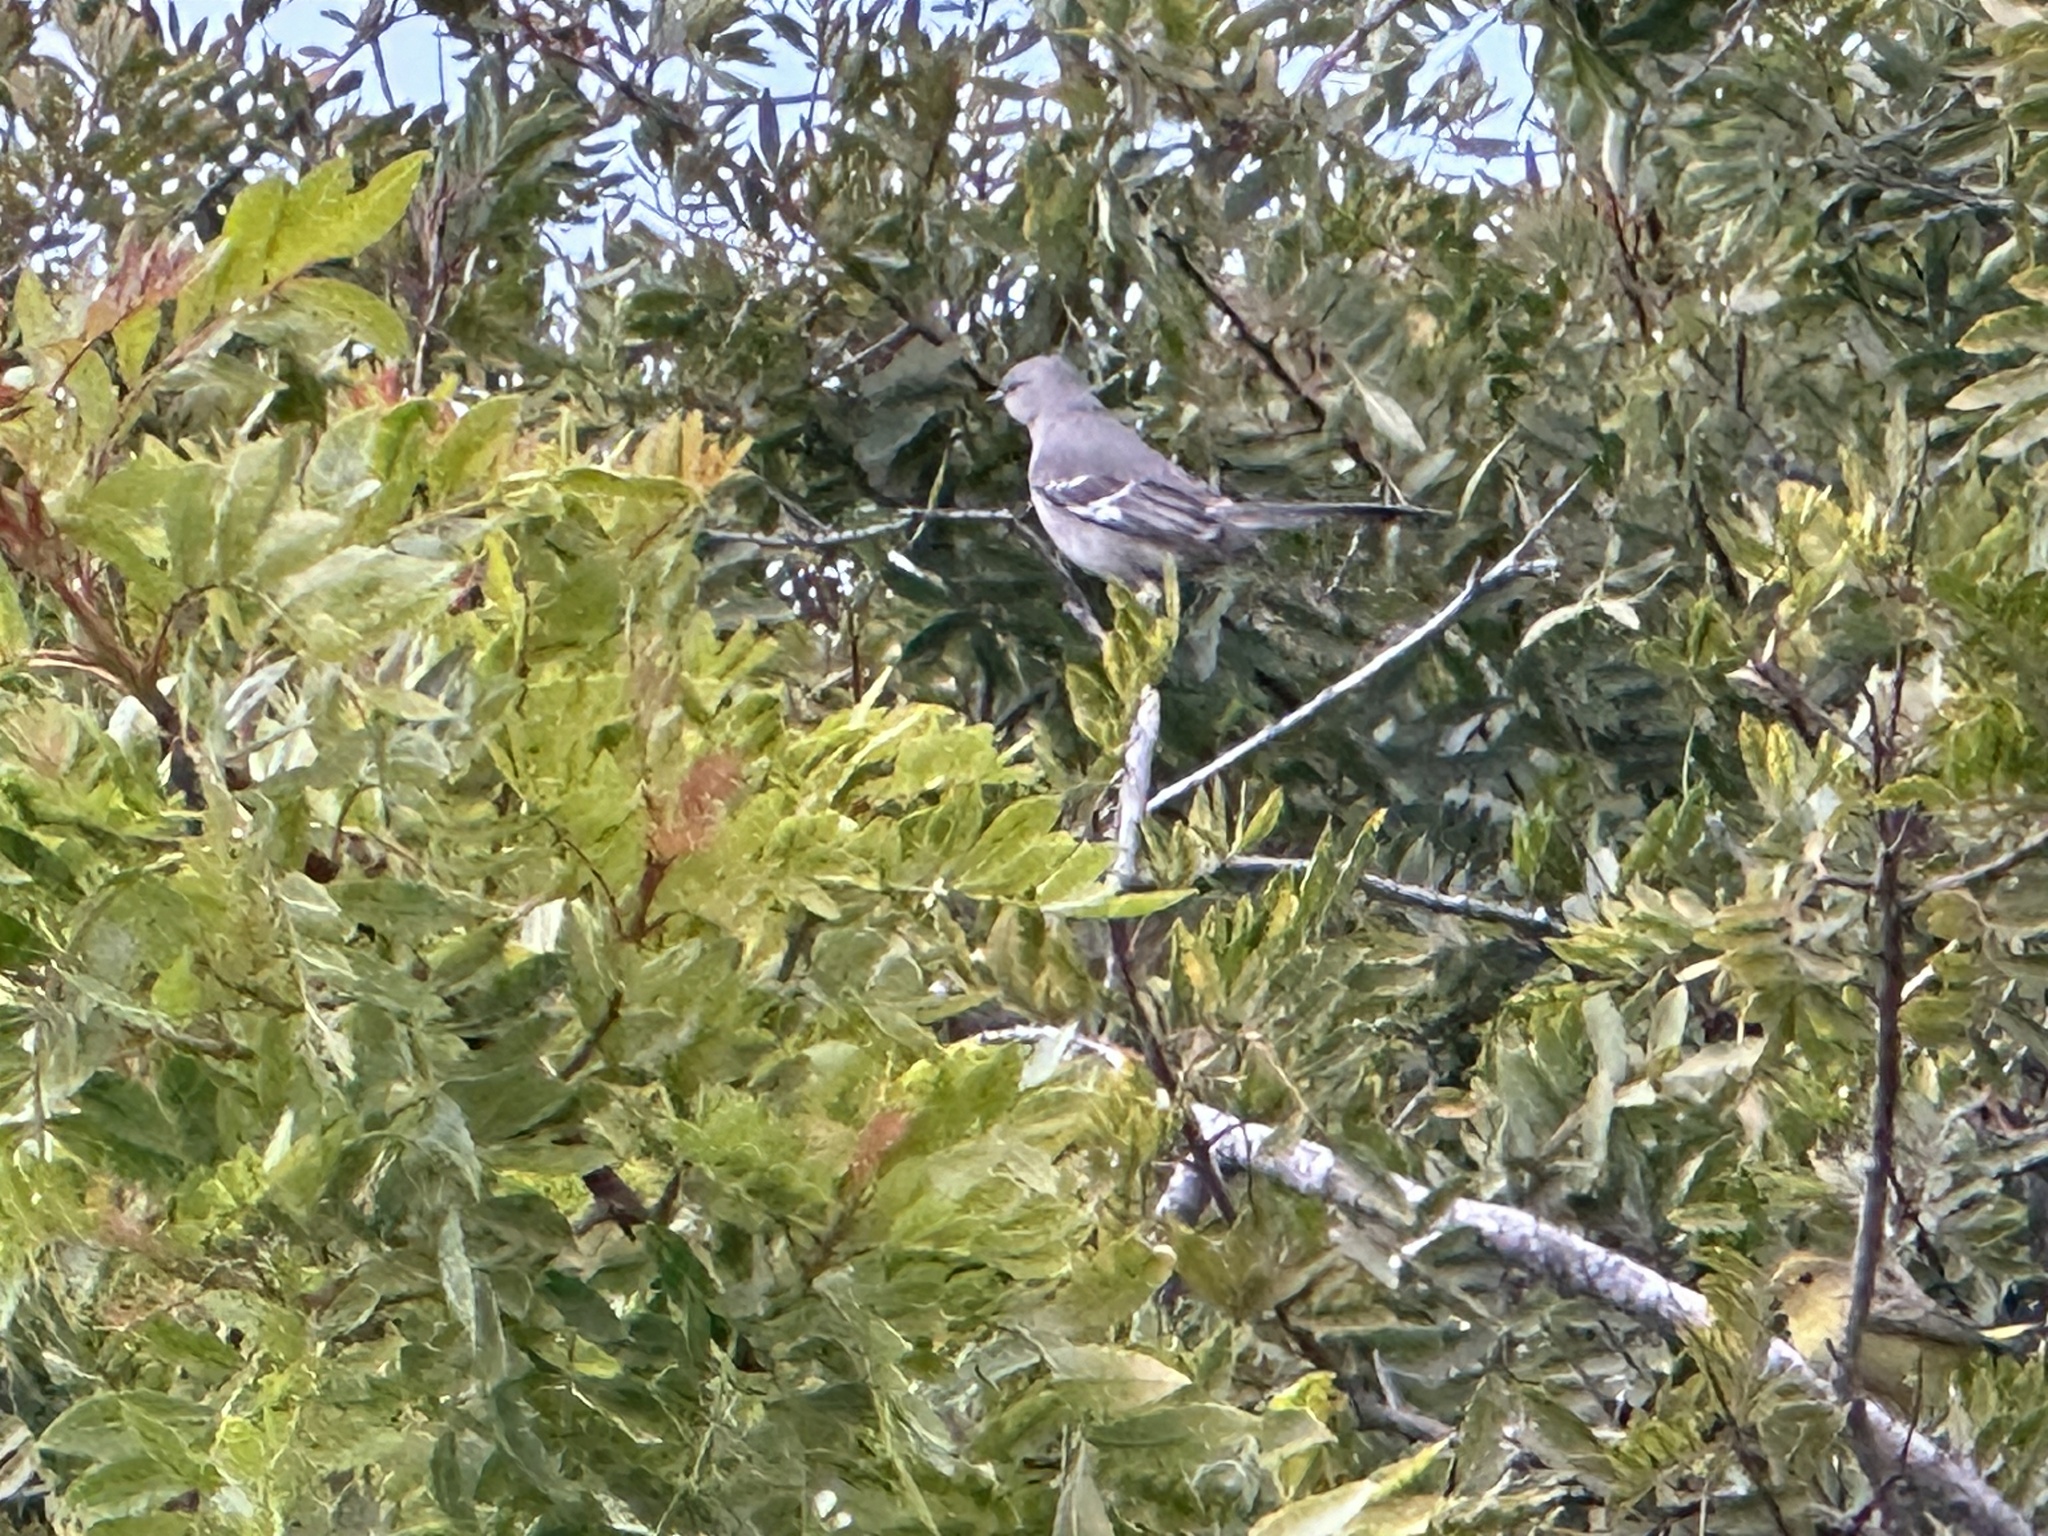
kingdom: Animalia
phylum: Chordata
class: Aves
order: Passeriformes
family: Mimidae
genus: Mimus
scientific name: Mimus polyglottos
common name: Northern mockingbird
